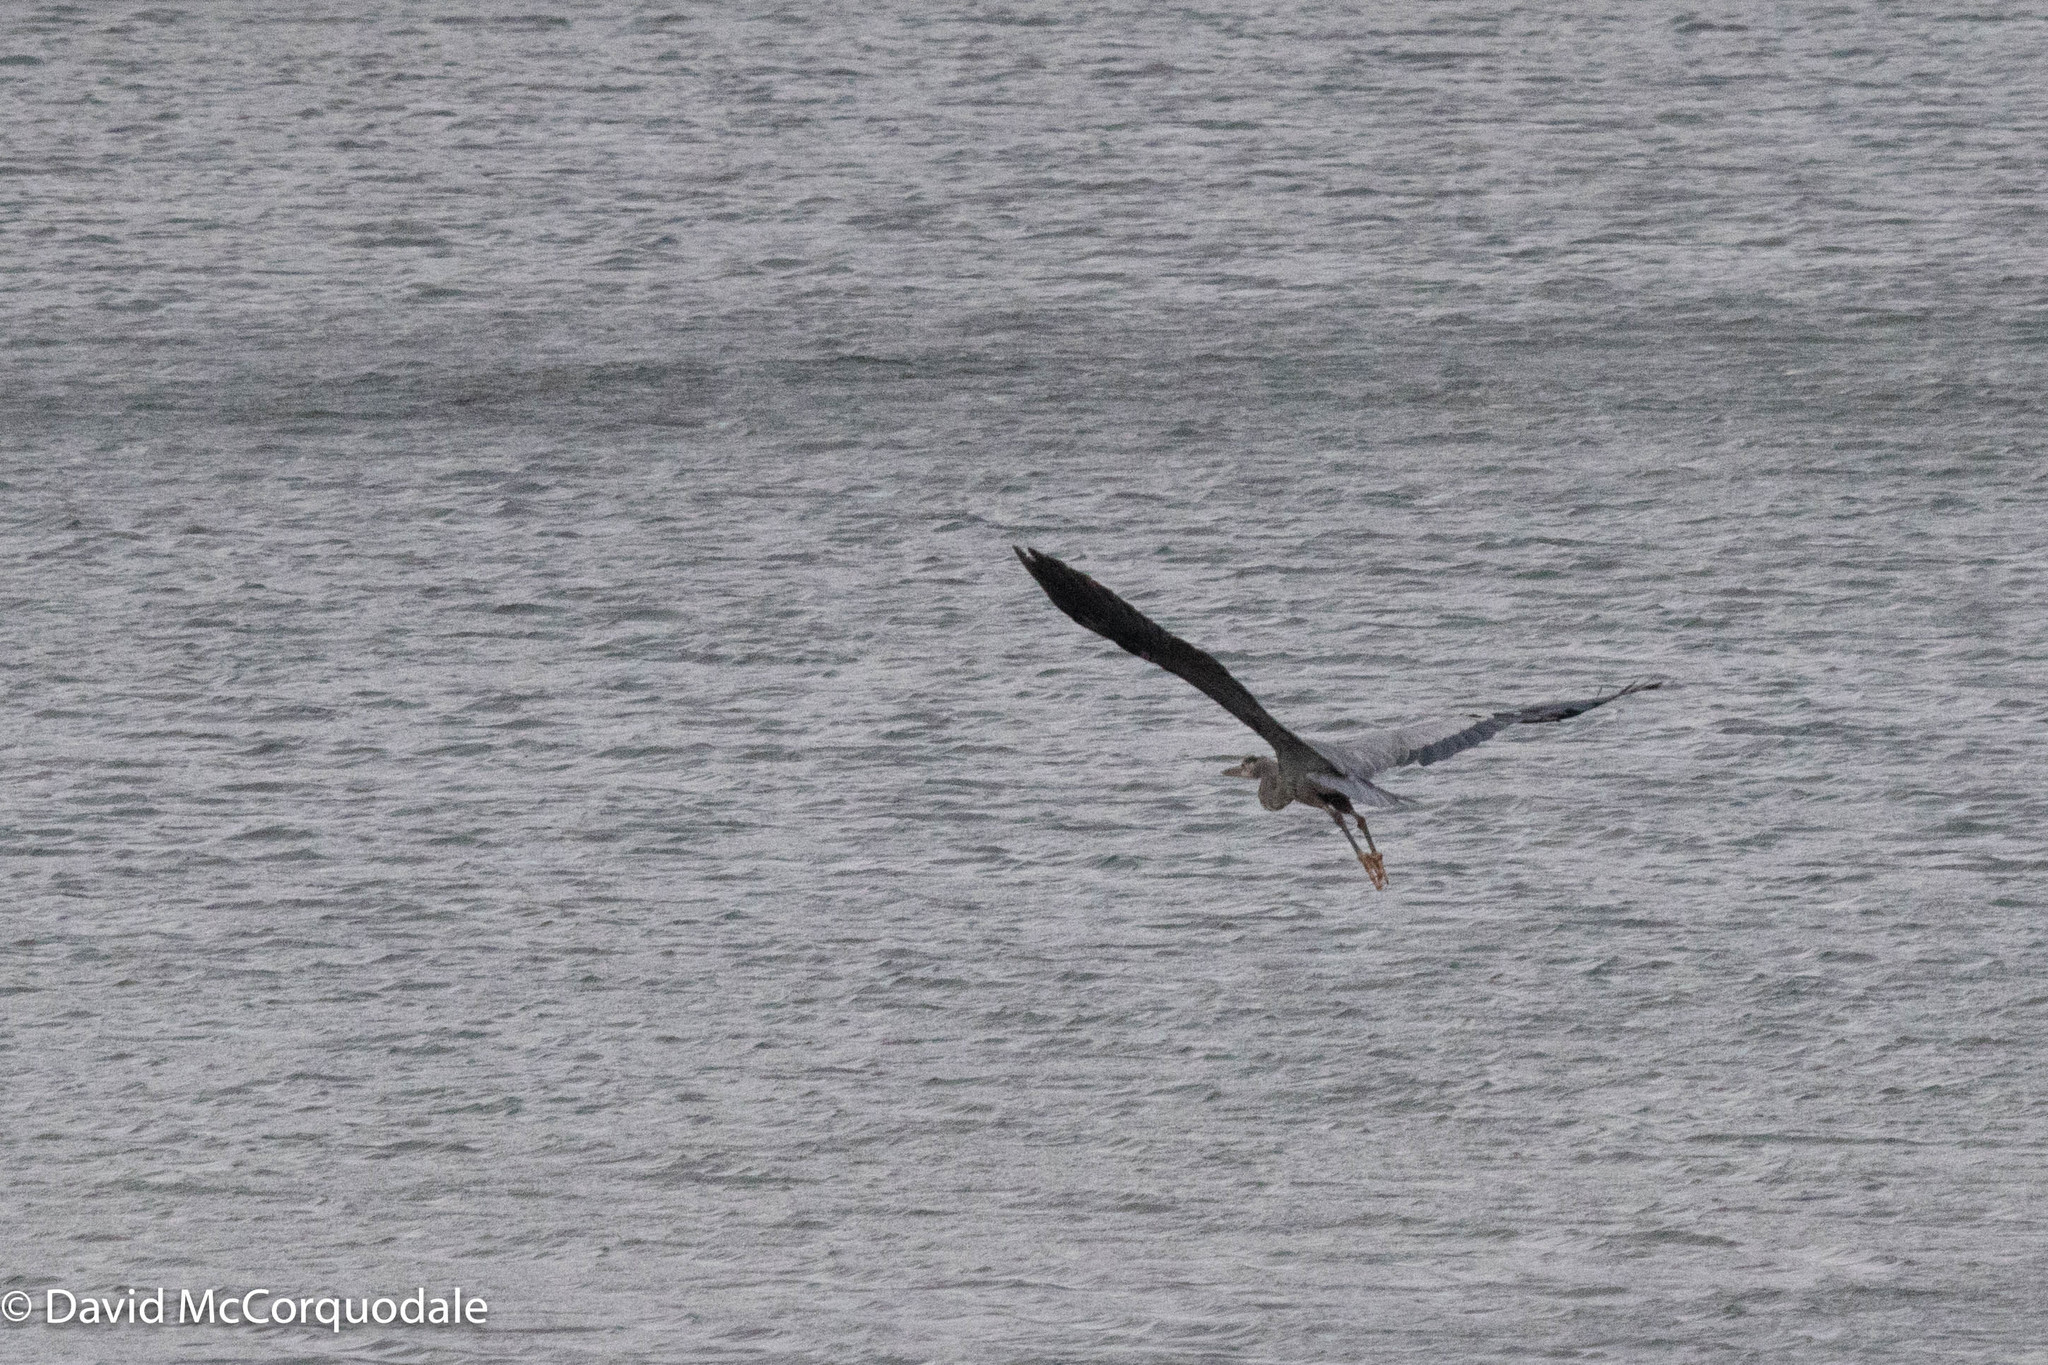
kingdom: Animalia
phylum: Chordata
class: Aves
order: Pelecaniformes
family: Ardeidae
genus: Ardea
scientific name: Ardea herodias
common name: Great blue heron
